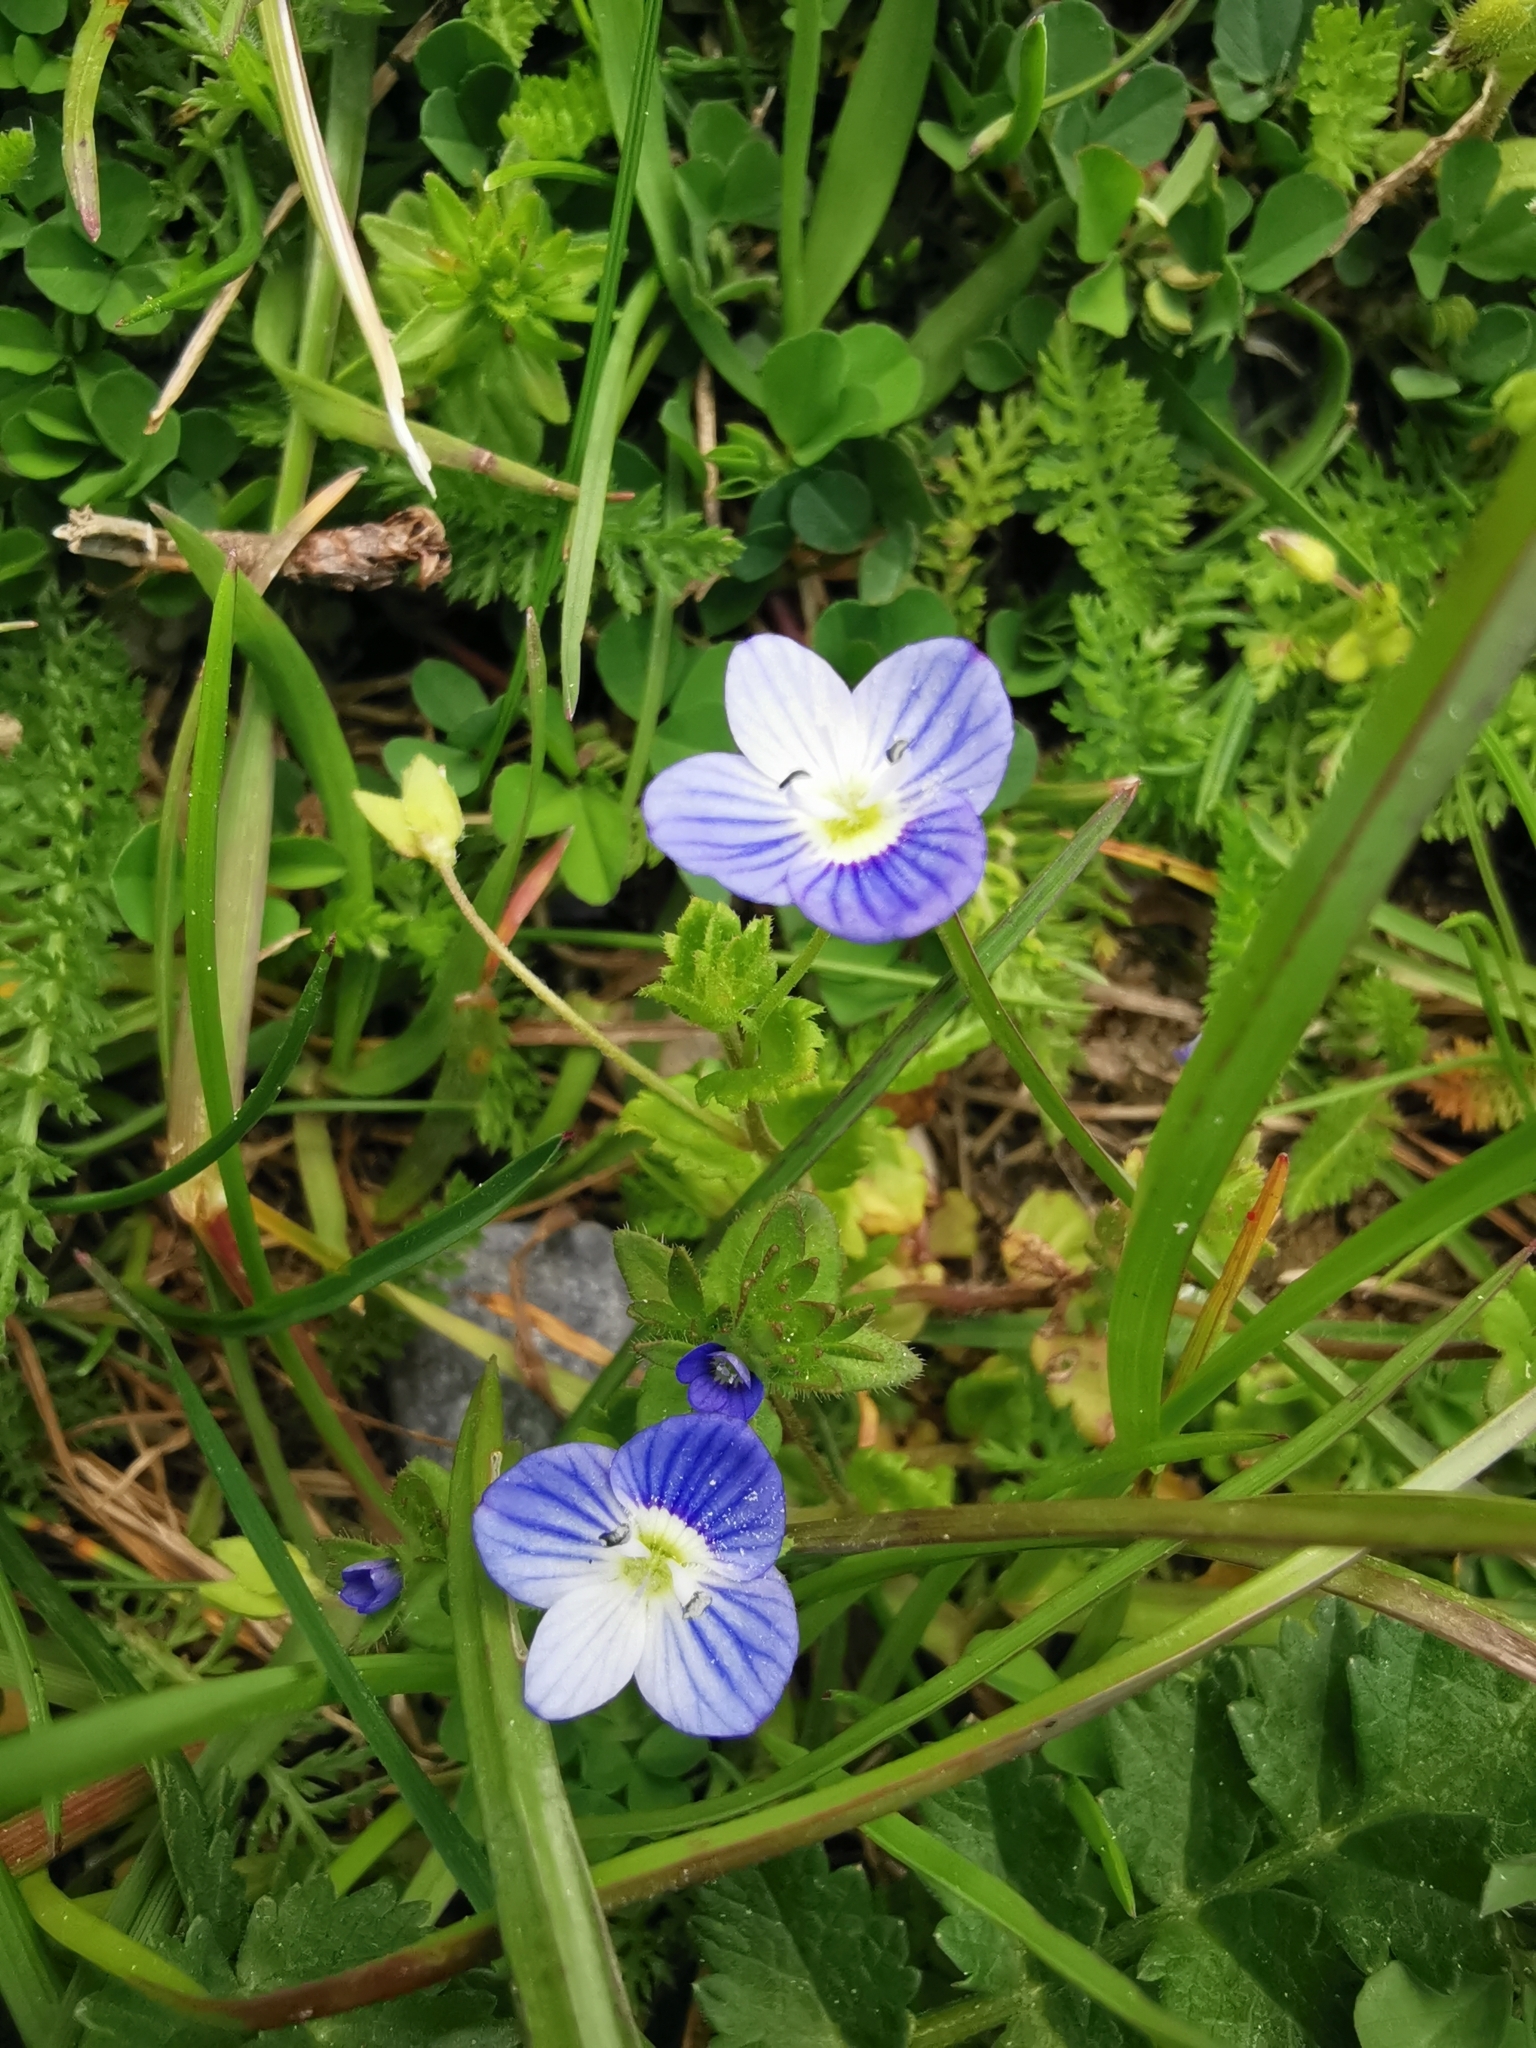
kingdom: Plantae
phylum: Tracheophyta
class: Magnoliopsida
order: Lamiales
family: Plantaginaceae
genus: Veronica
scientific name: Veronica persica
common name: Common field-speedwell
